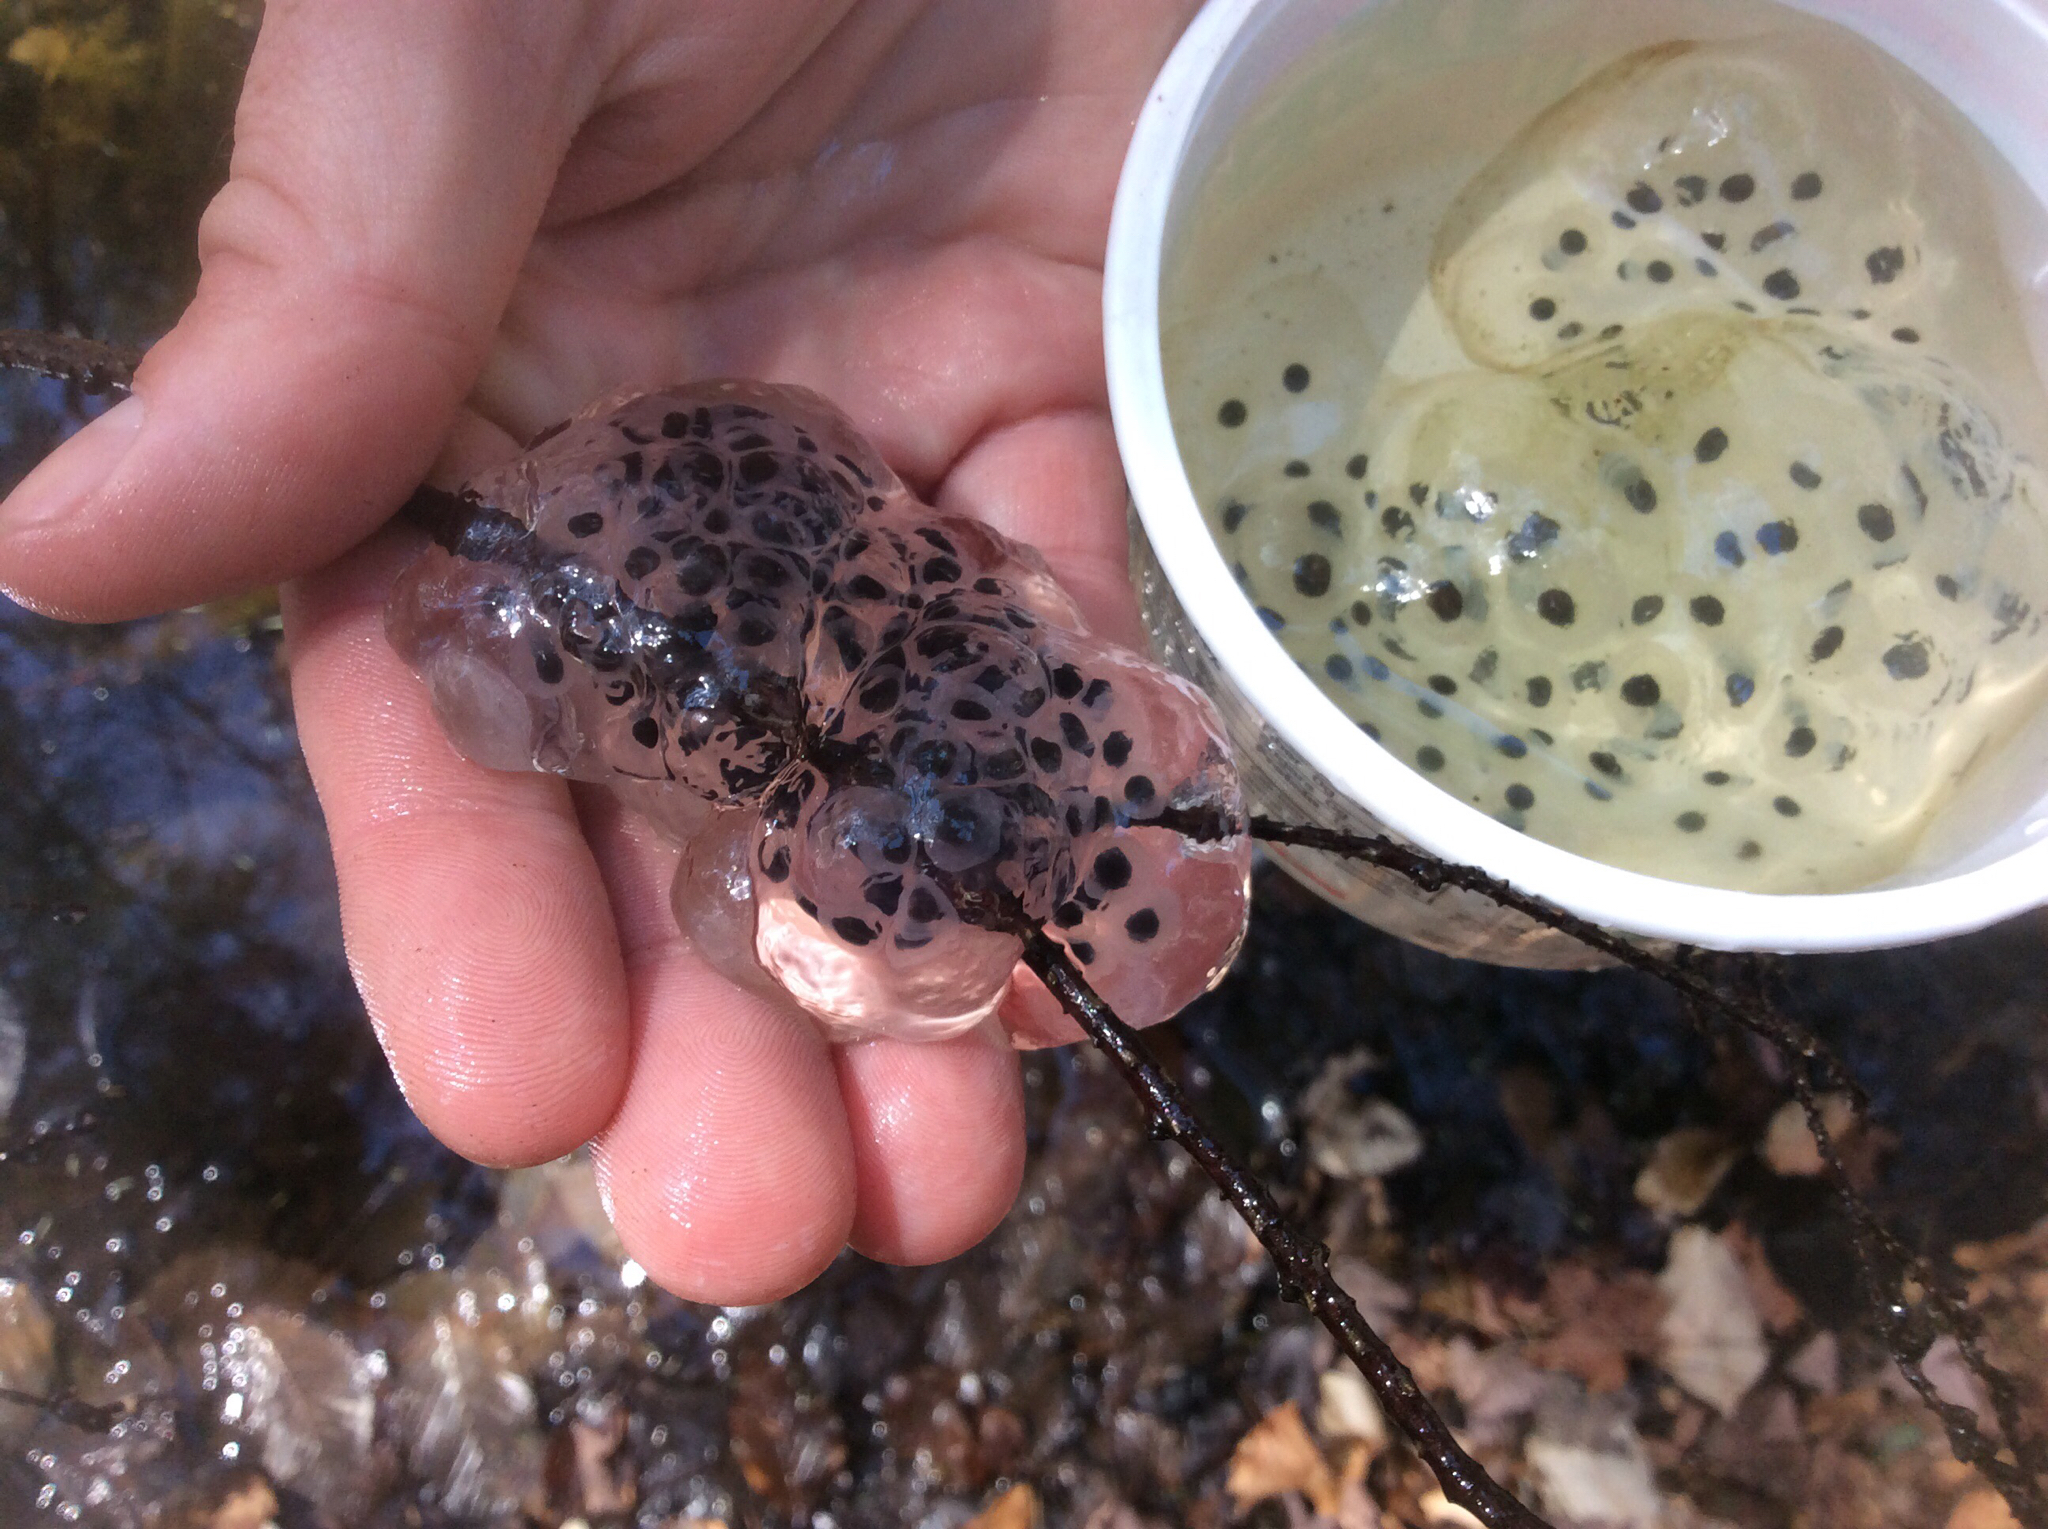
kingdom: Animalia
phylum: Chordata
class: Amphibia
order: Caudata
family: Ambystomatidae
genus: Ambystoma
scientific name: Ambystoma maculatum
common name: Spotted salamander
